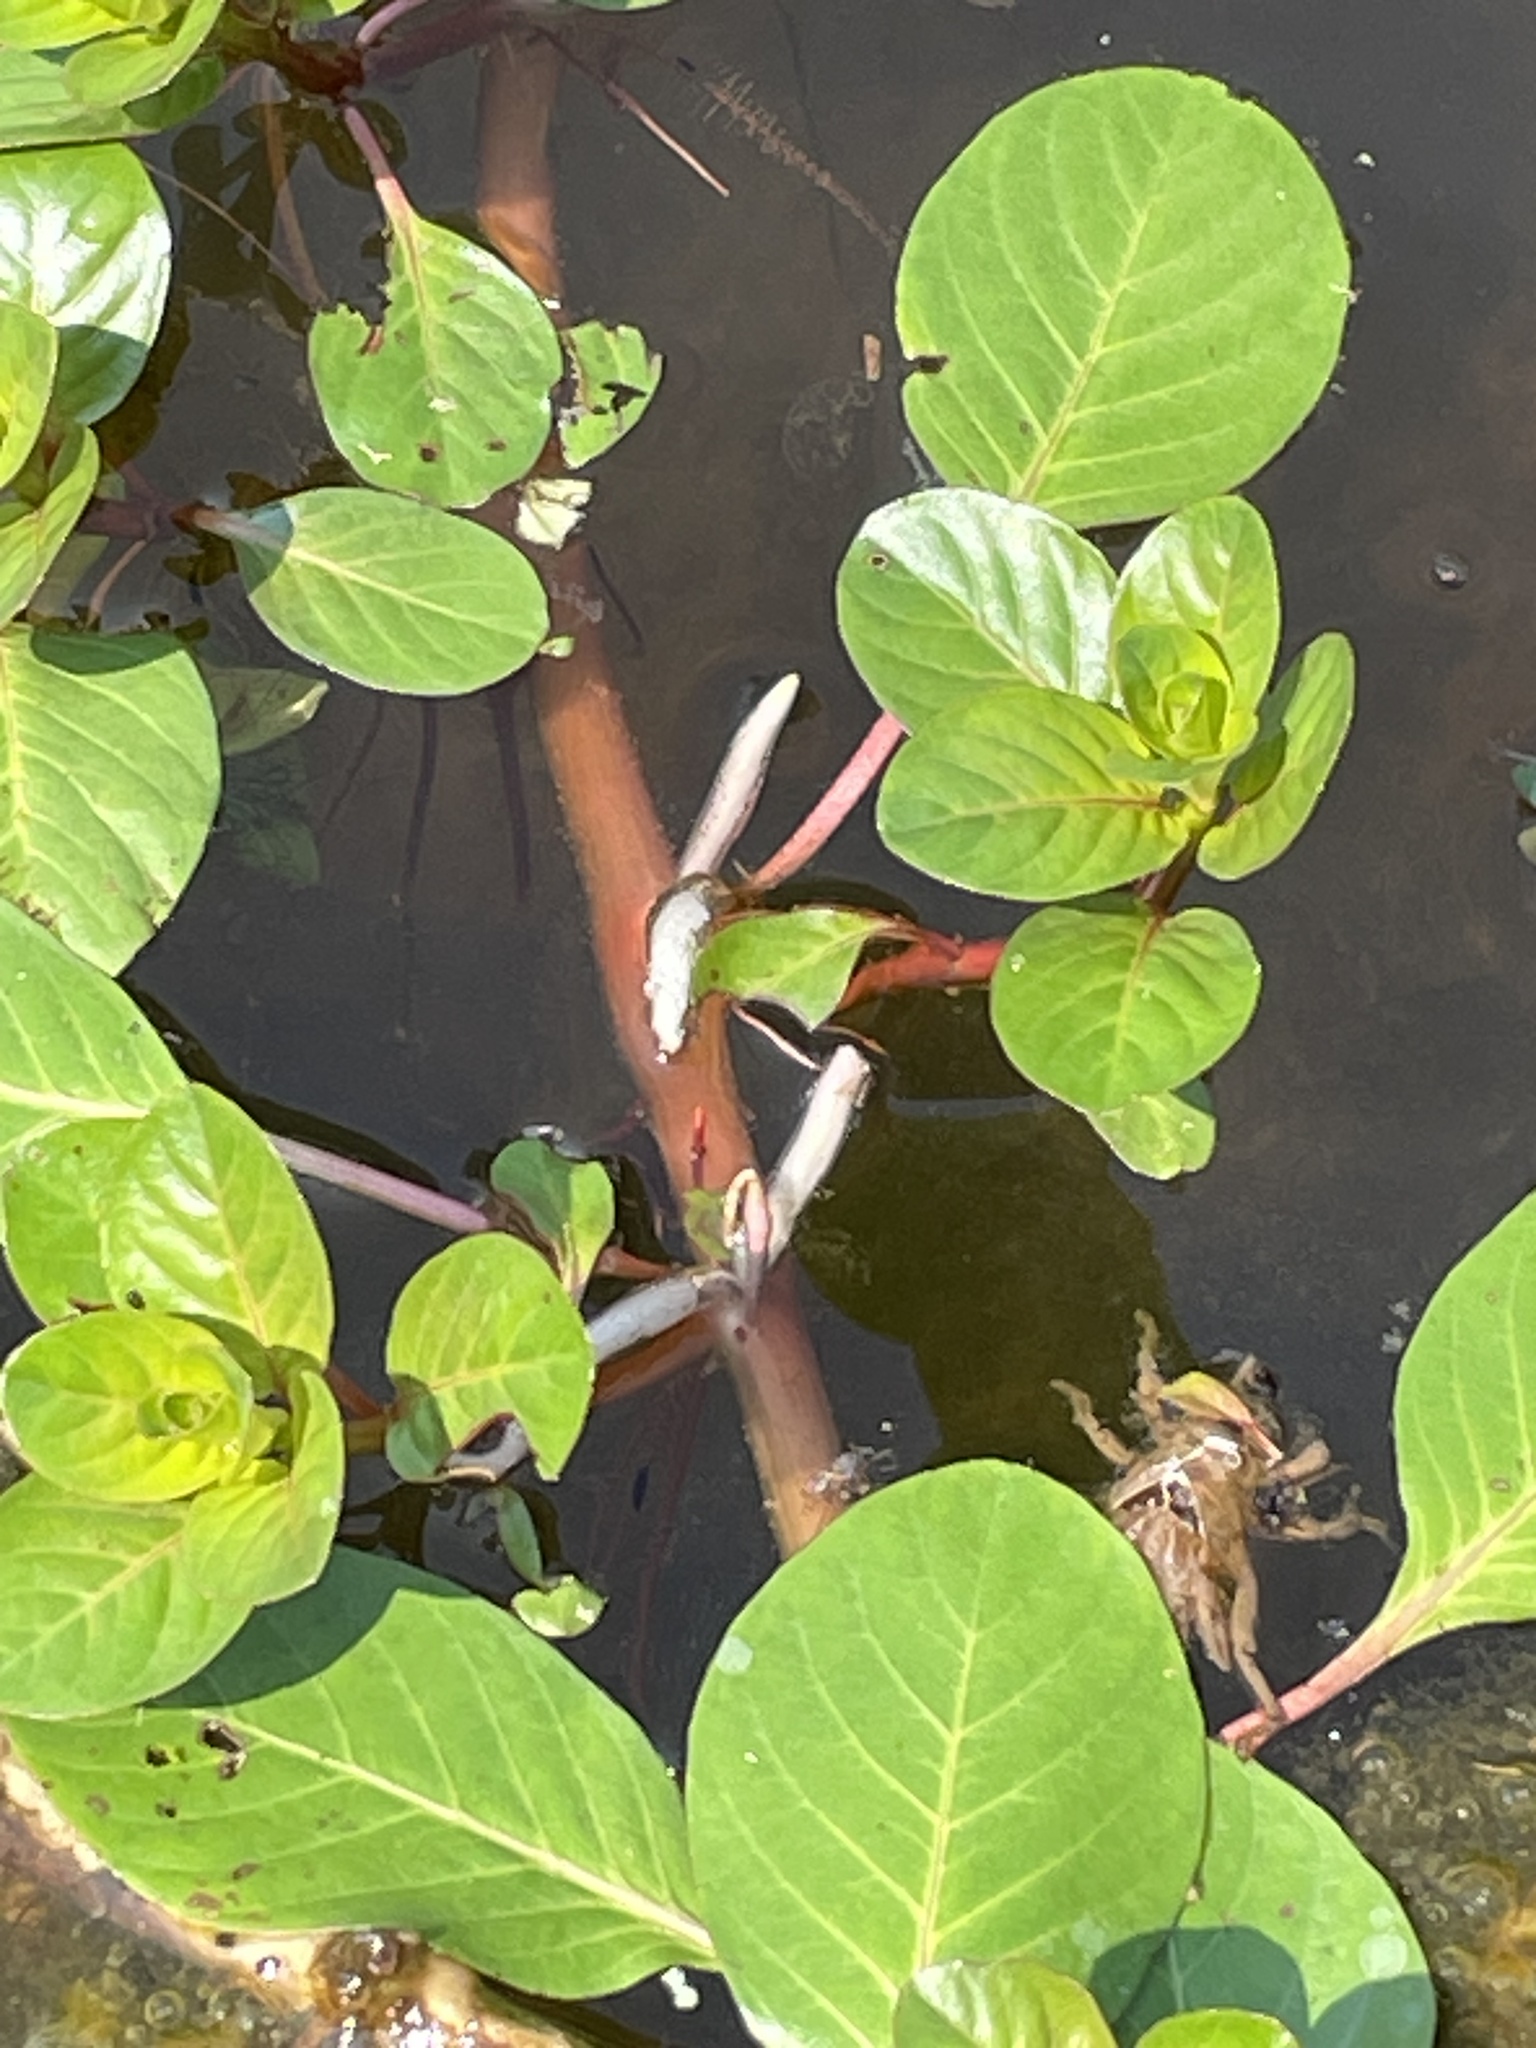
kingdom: Plantae
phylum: Tracheophyta
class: Magnoliopsida
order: Myrtales
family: Onagraceae
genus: Ludwigia
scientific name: Ludwigia peploides
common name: Floating primrose-willow
